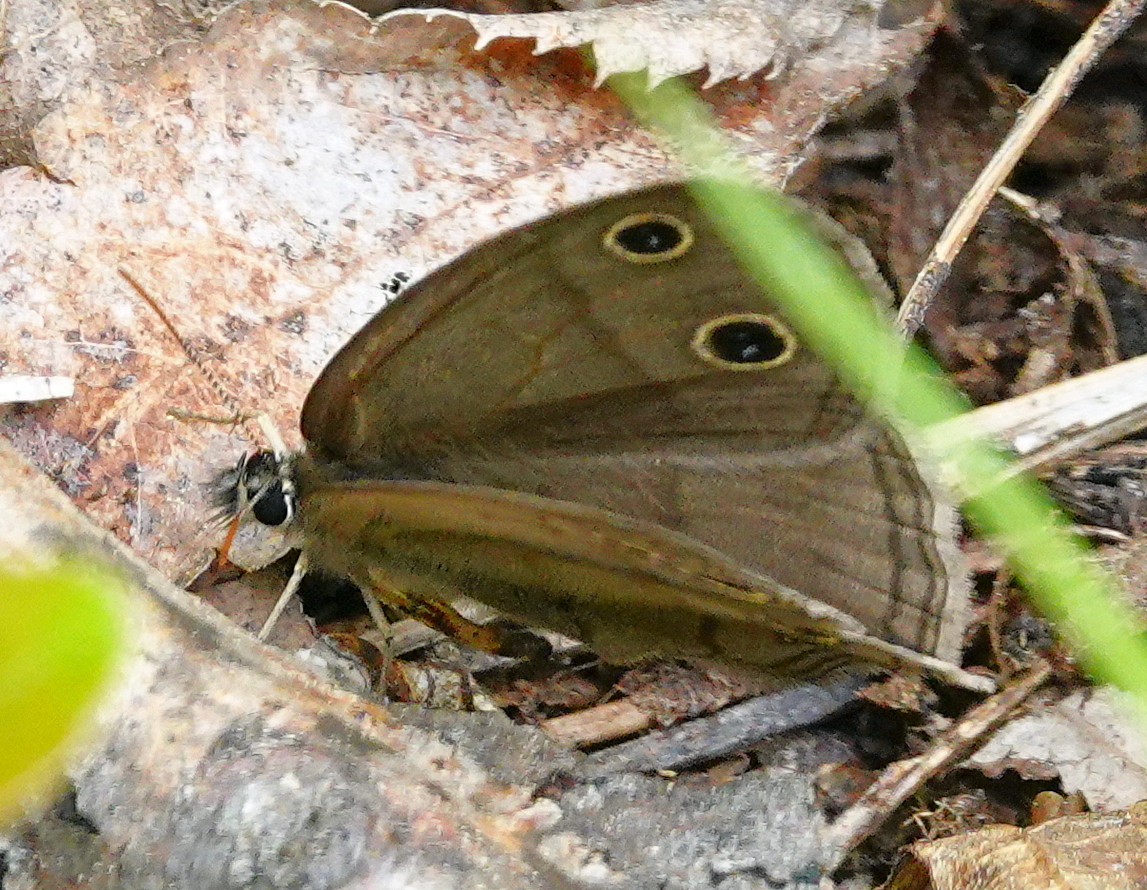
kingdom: Animalia
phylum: Arthropoda
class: Insecta
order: Lepidoptera
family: Nymphalidae
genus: Euptychia
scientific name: Euptychia cymela
